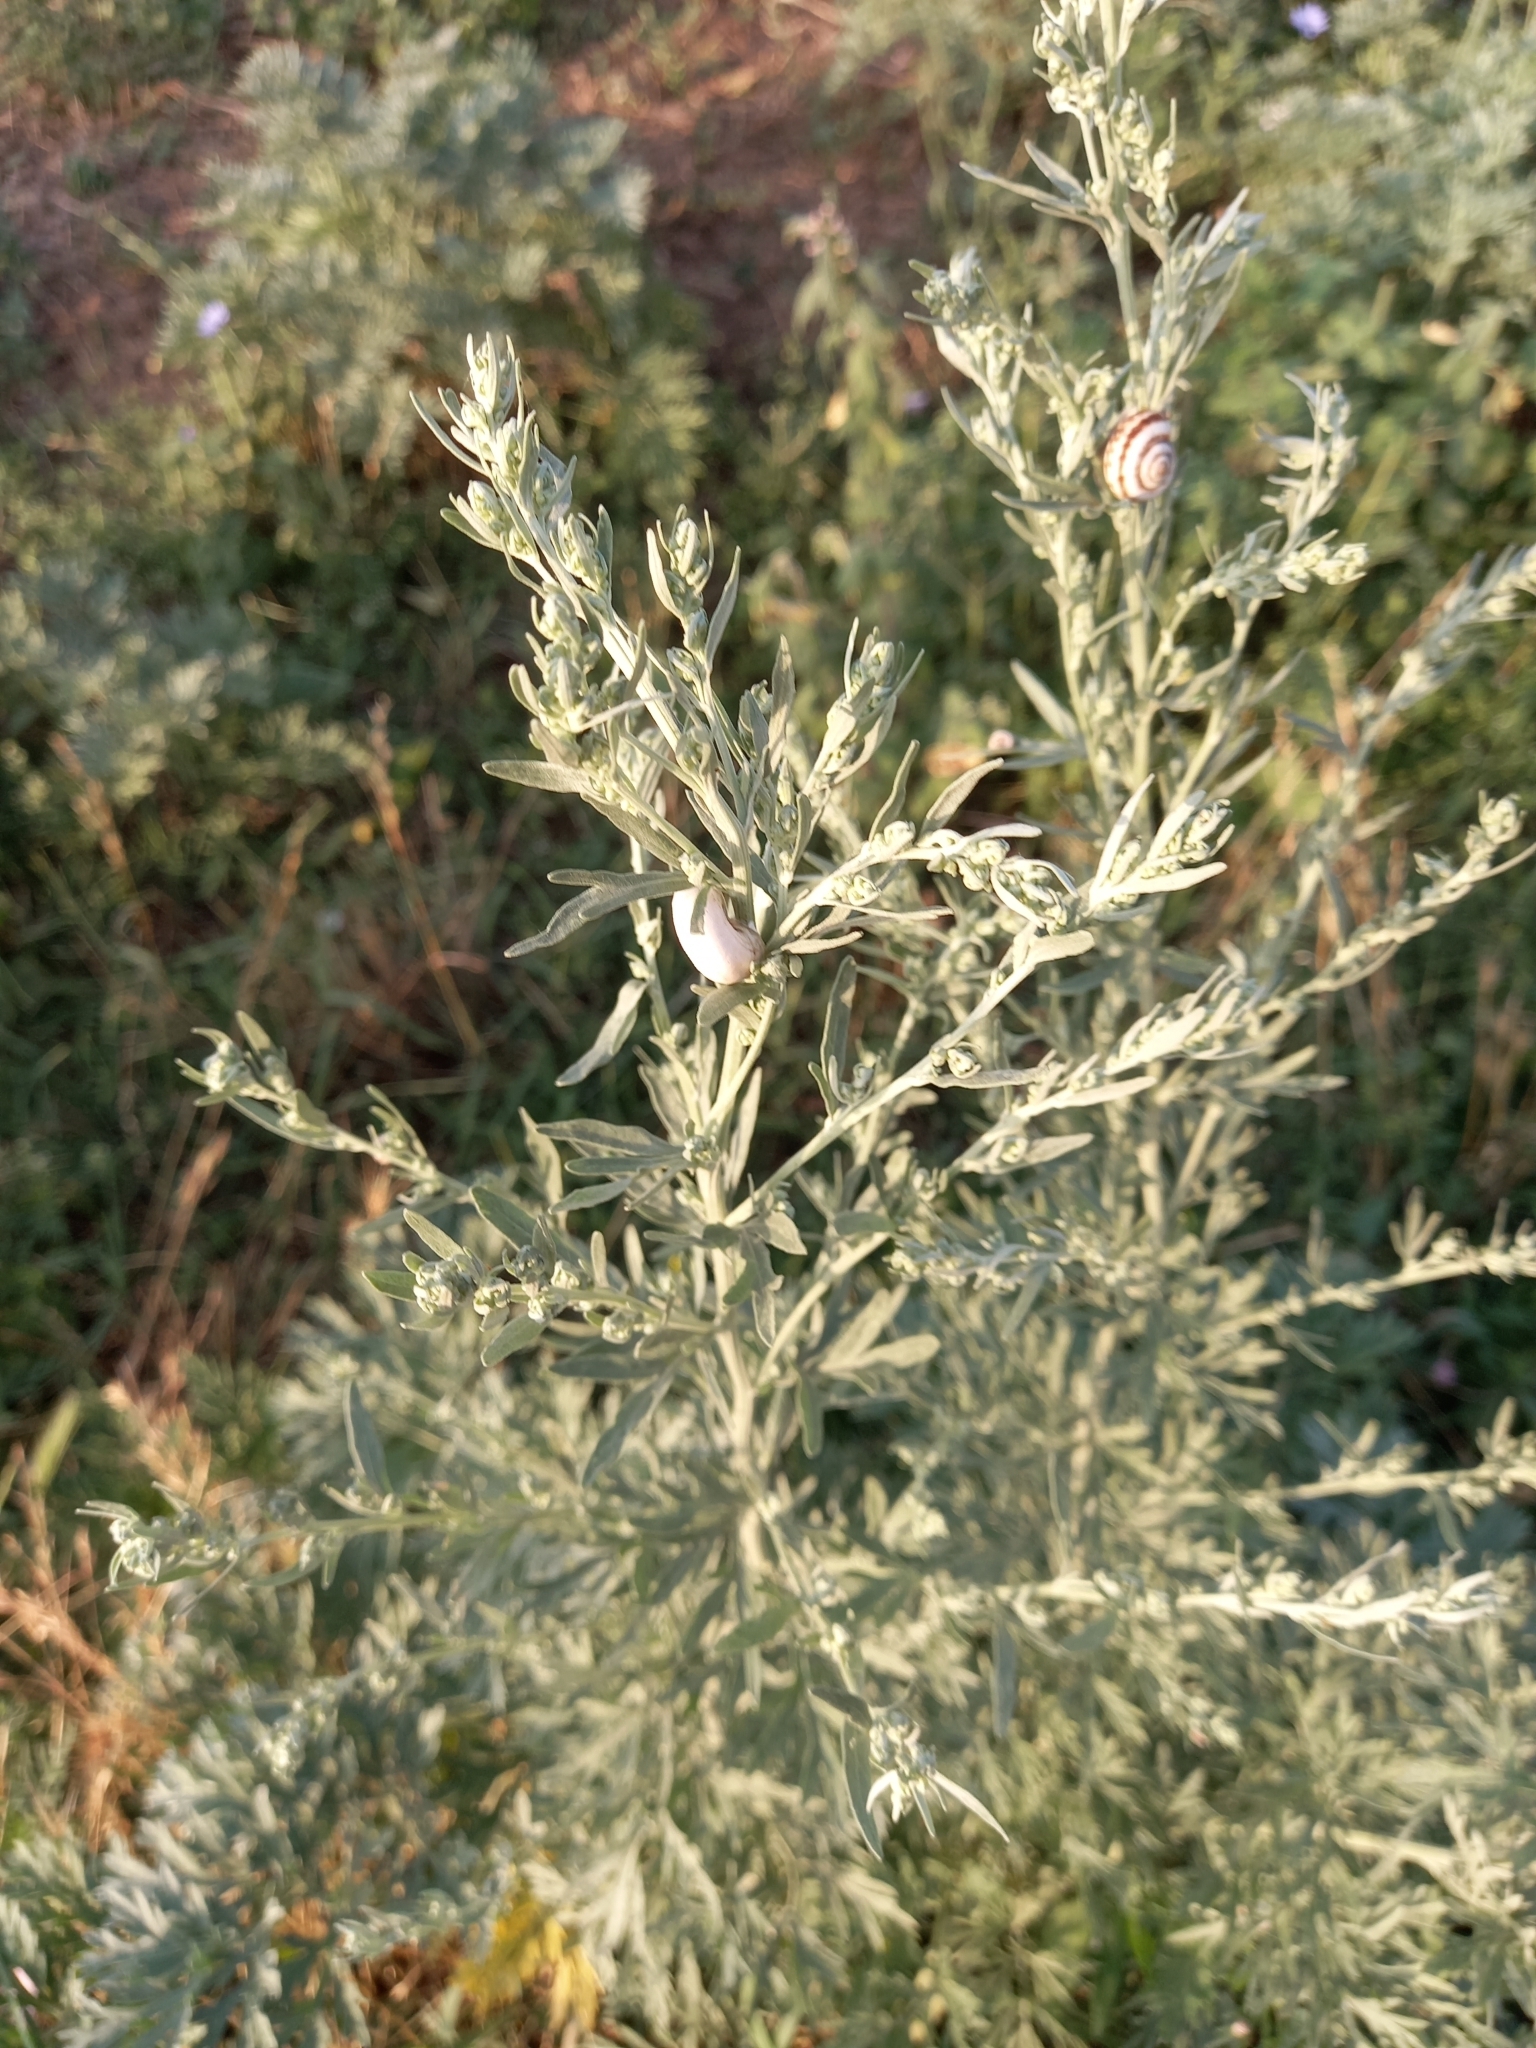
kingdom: Plantae
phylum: Tracheophyta
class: Magnoliopsida
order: Asterales
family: Asteraceae
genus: Artemisia
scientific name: Artemisia absinthium
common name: Wormwood
